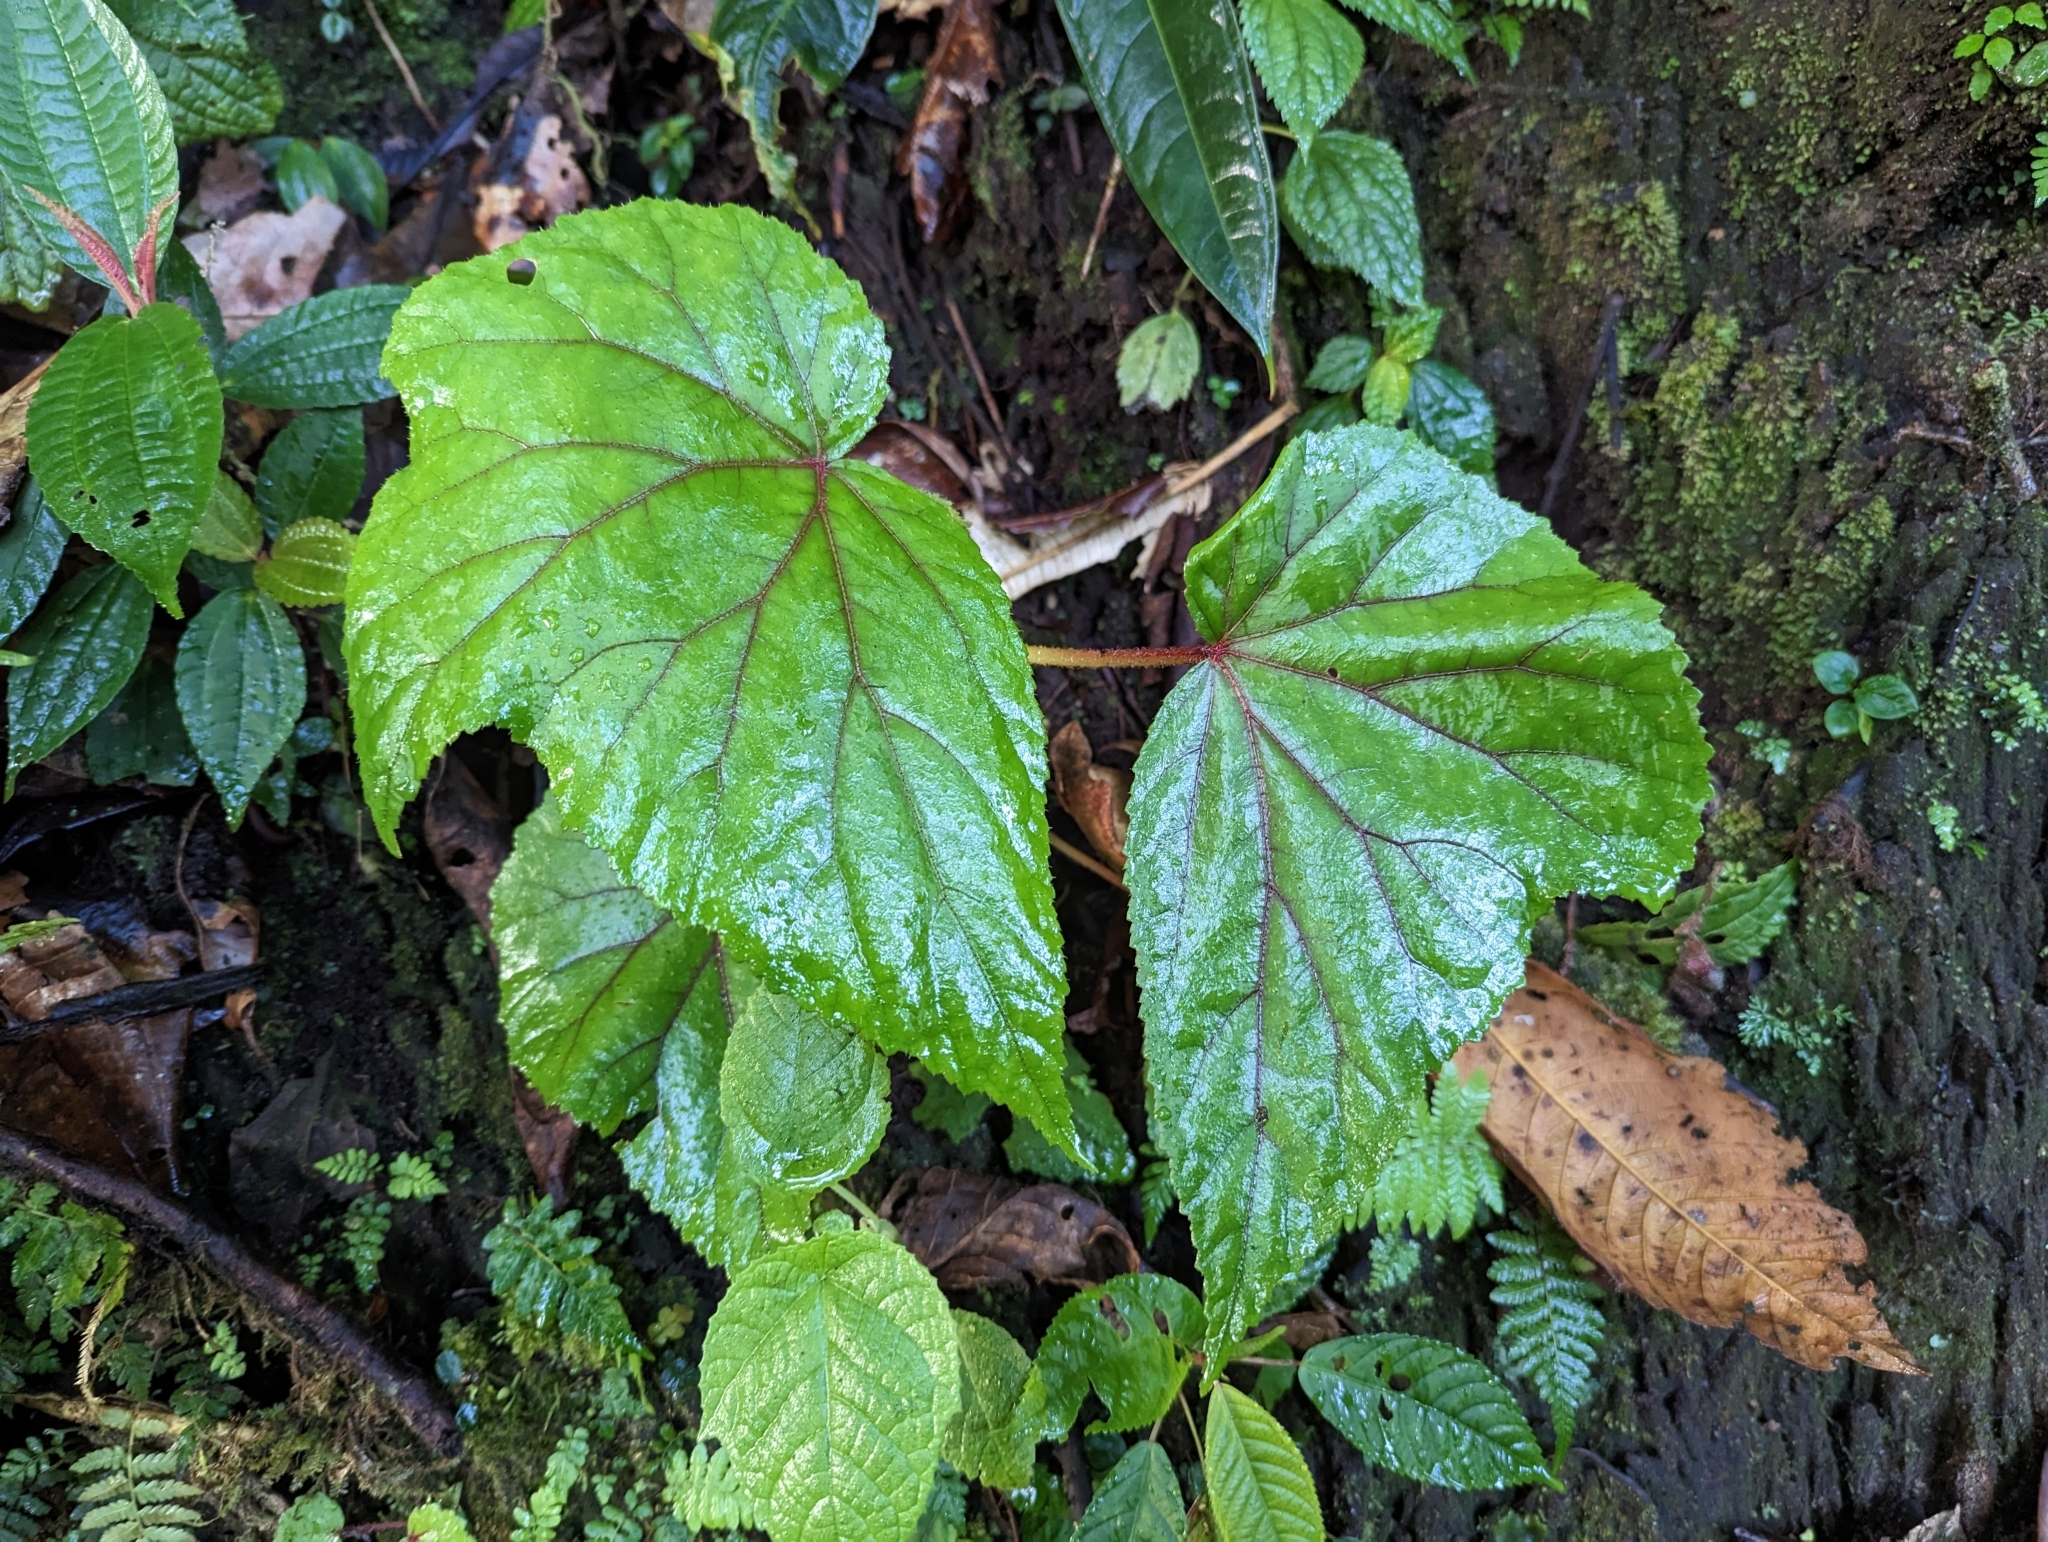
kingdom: Plantae
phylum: Tracheophyta
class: Magnoliopsida
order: Cucurbitales
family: Begoniaceae
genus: Begonia
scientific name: Begonia parviflora
